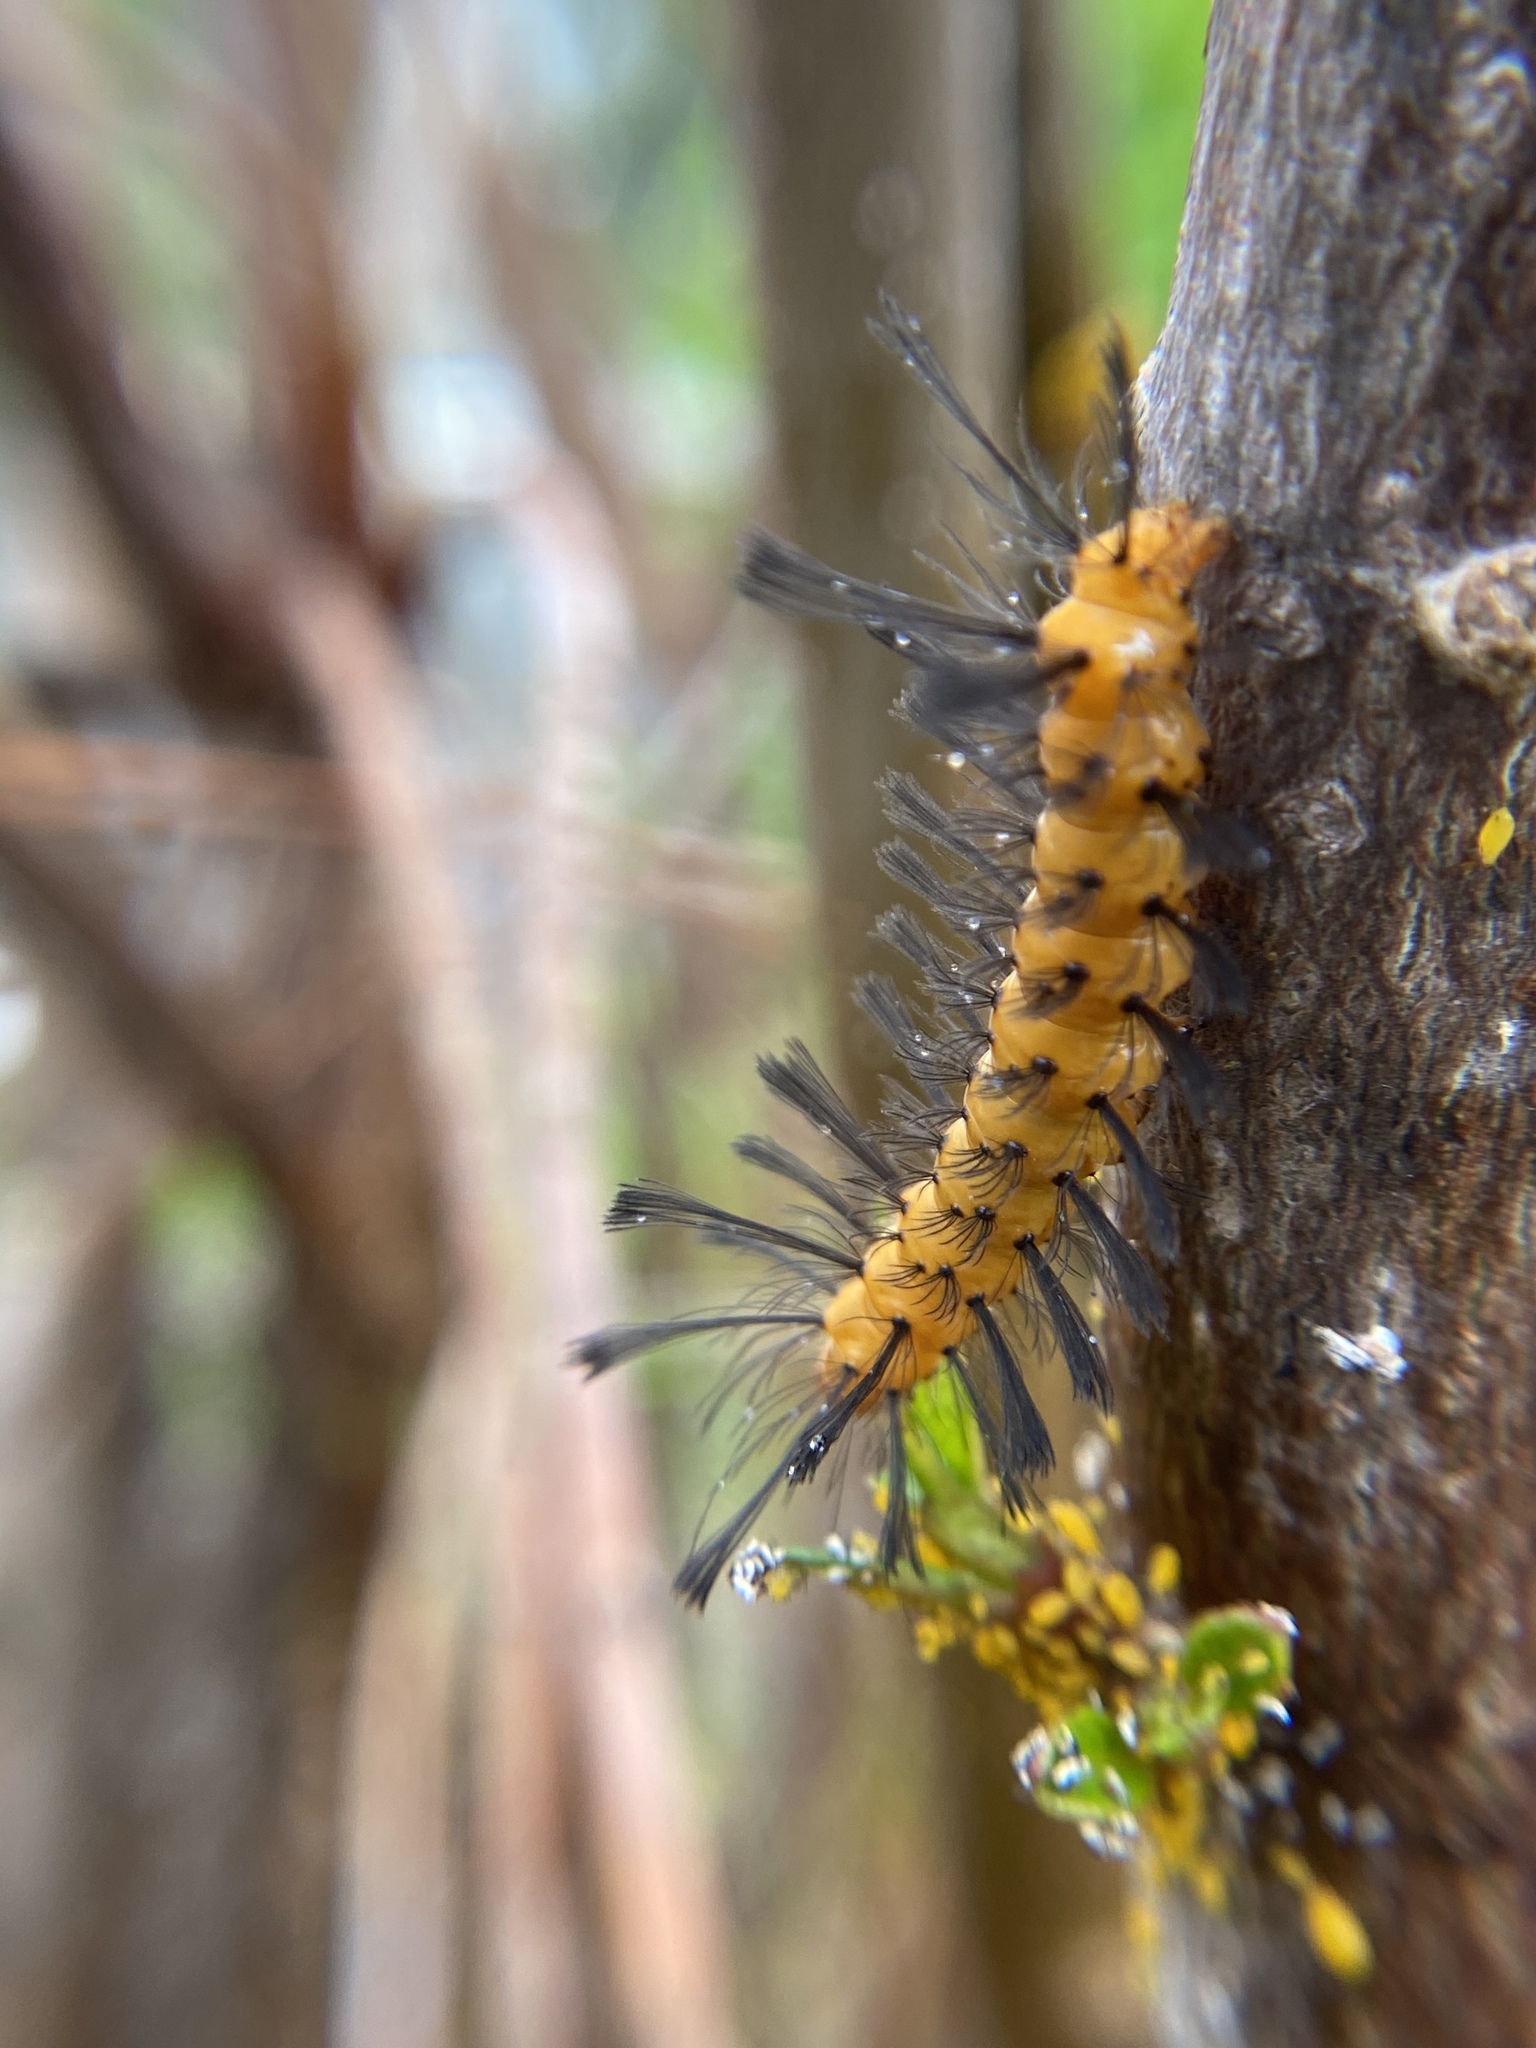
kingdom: Animalia
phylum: Arthropoda
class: Insecta
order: Lepidoptera
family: Erebidae
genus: Syntomeida
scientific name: Syntomeida epilais
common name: Polka-dot wasp moth
